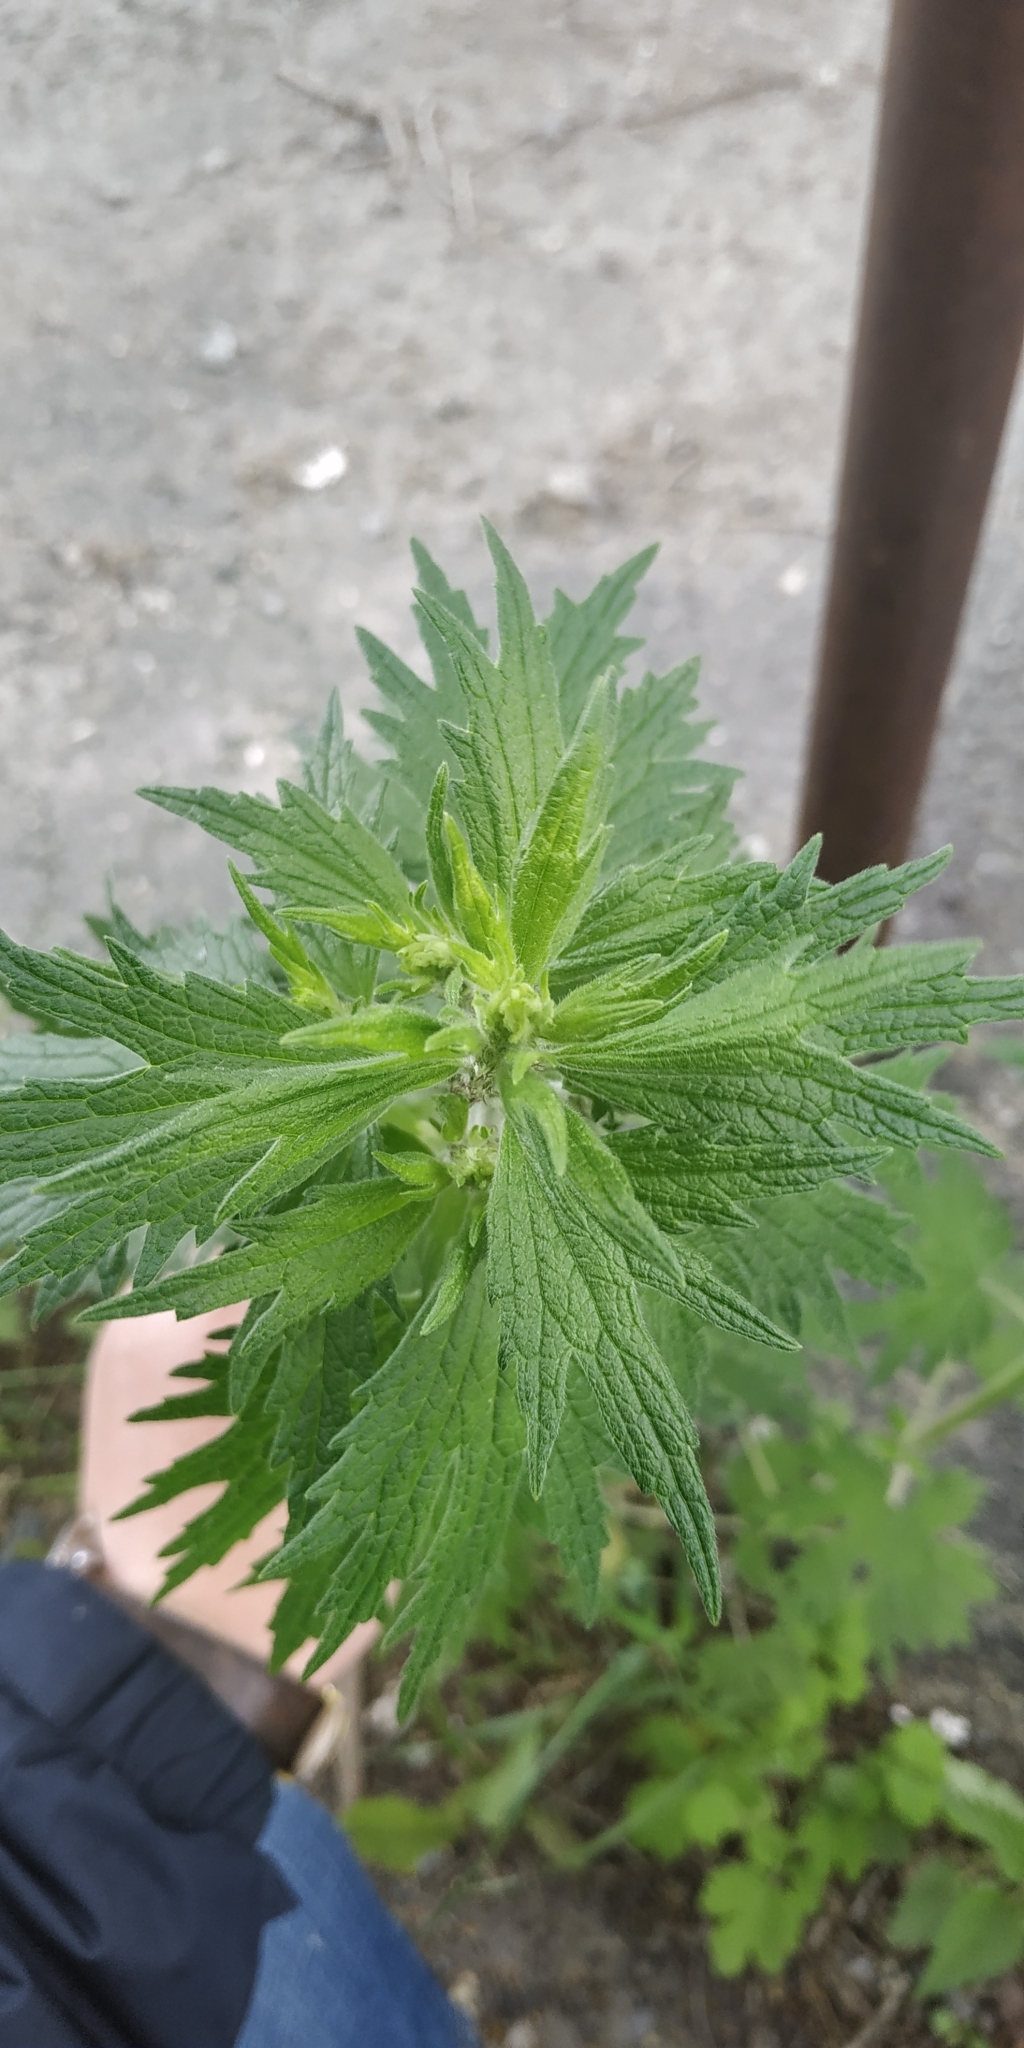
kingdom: Plantae
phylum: Tracheophyta
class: Magnoliopsida
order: Lamiales
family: Lamiaceae
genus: Leonurus
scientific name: Leonurus quinquelobatus
